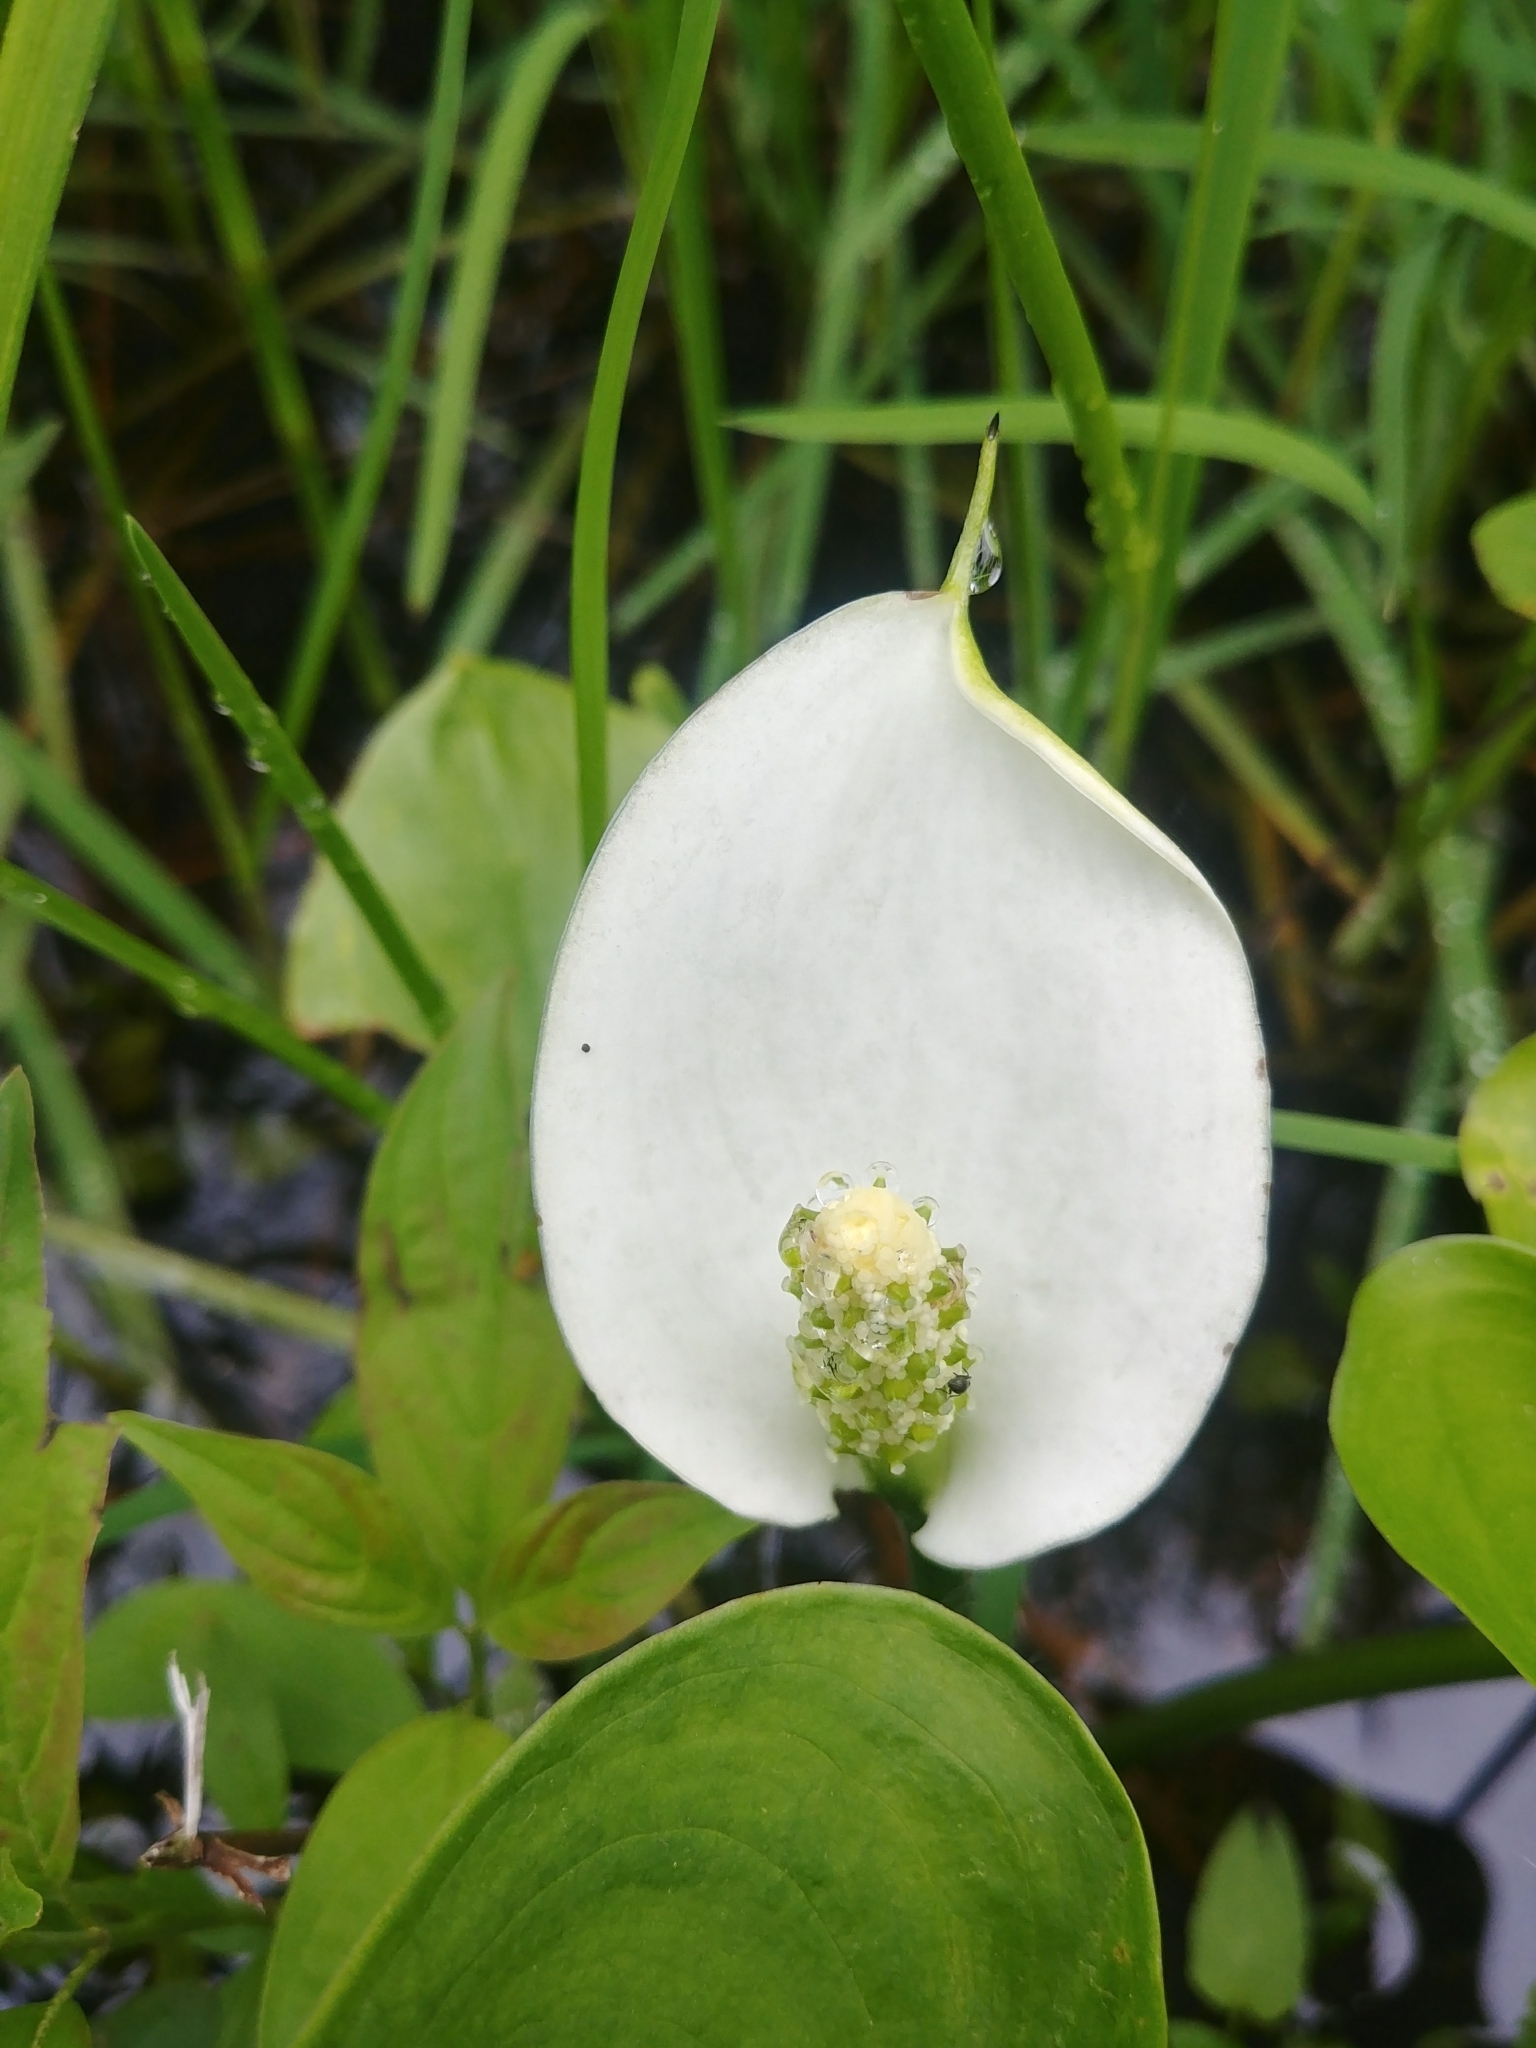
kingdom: Plantae
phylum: Tracheophyta
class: Liliopsida
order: Alismatales
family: Araceae
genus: Calla
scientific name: Calla palustris
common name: Bog arum
